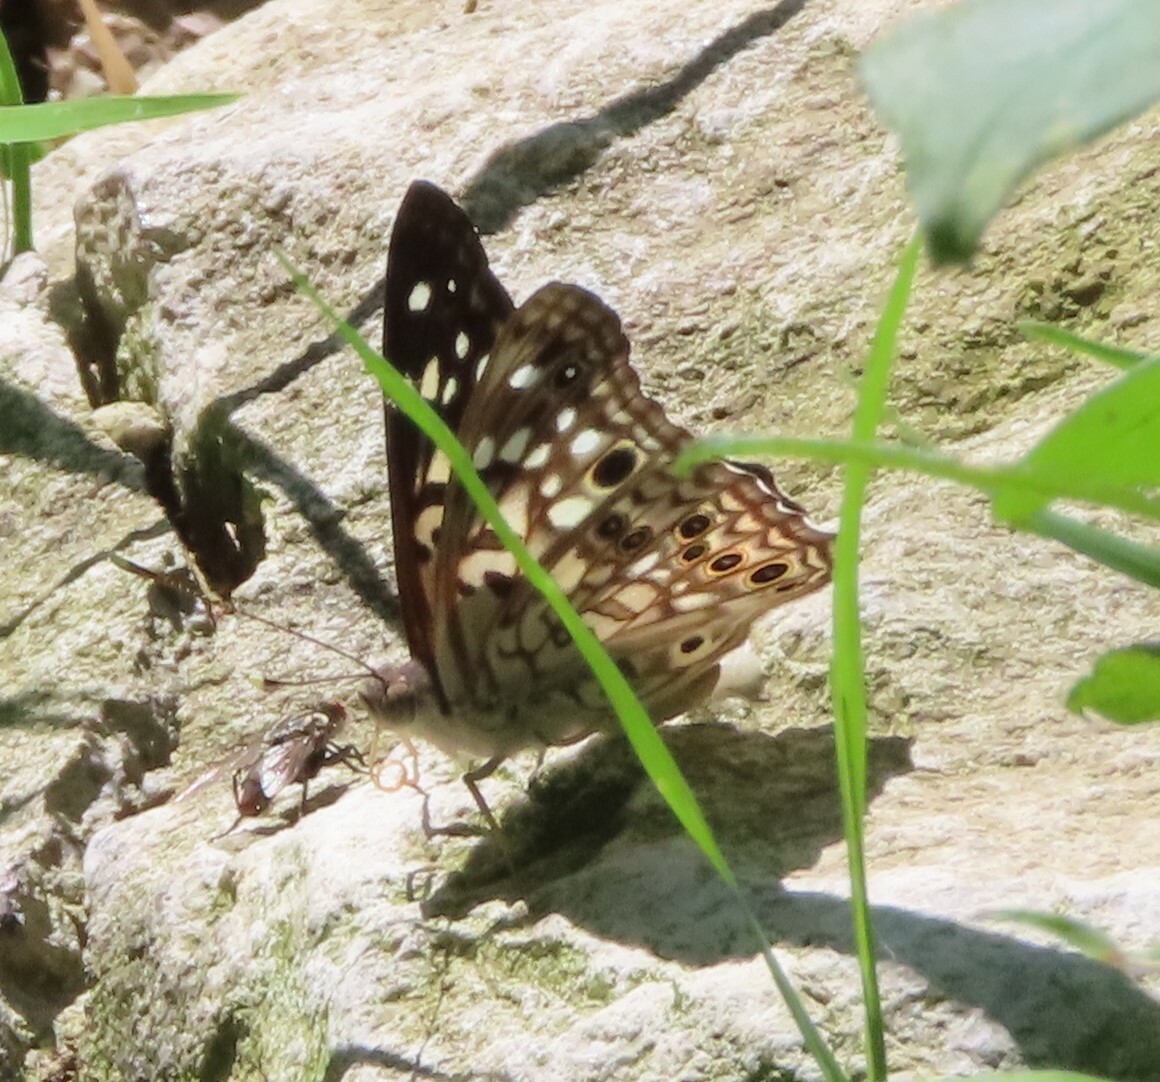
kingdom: Animalia
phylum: Arthropoda
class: Insecta
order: Lepidoptera
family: Nymphalidae
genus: Asterocampa
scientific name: Asterocampa celtis
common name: Hackberry emperor
